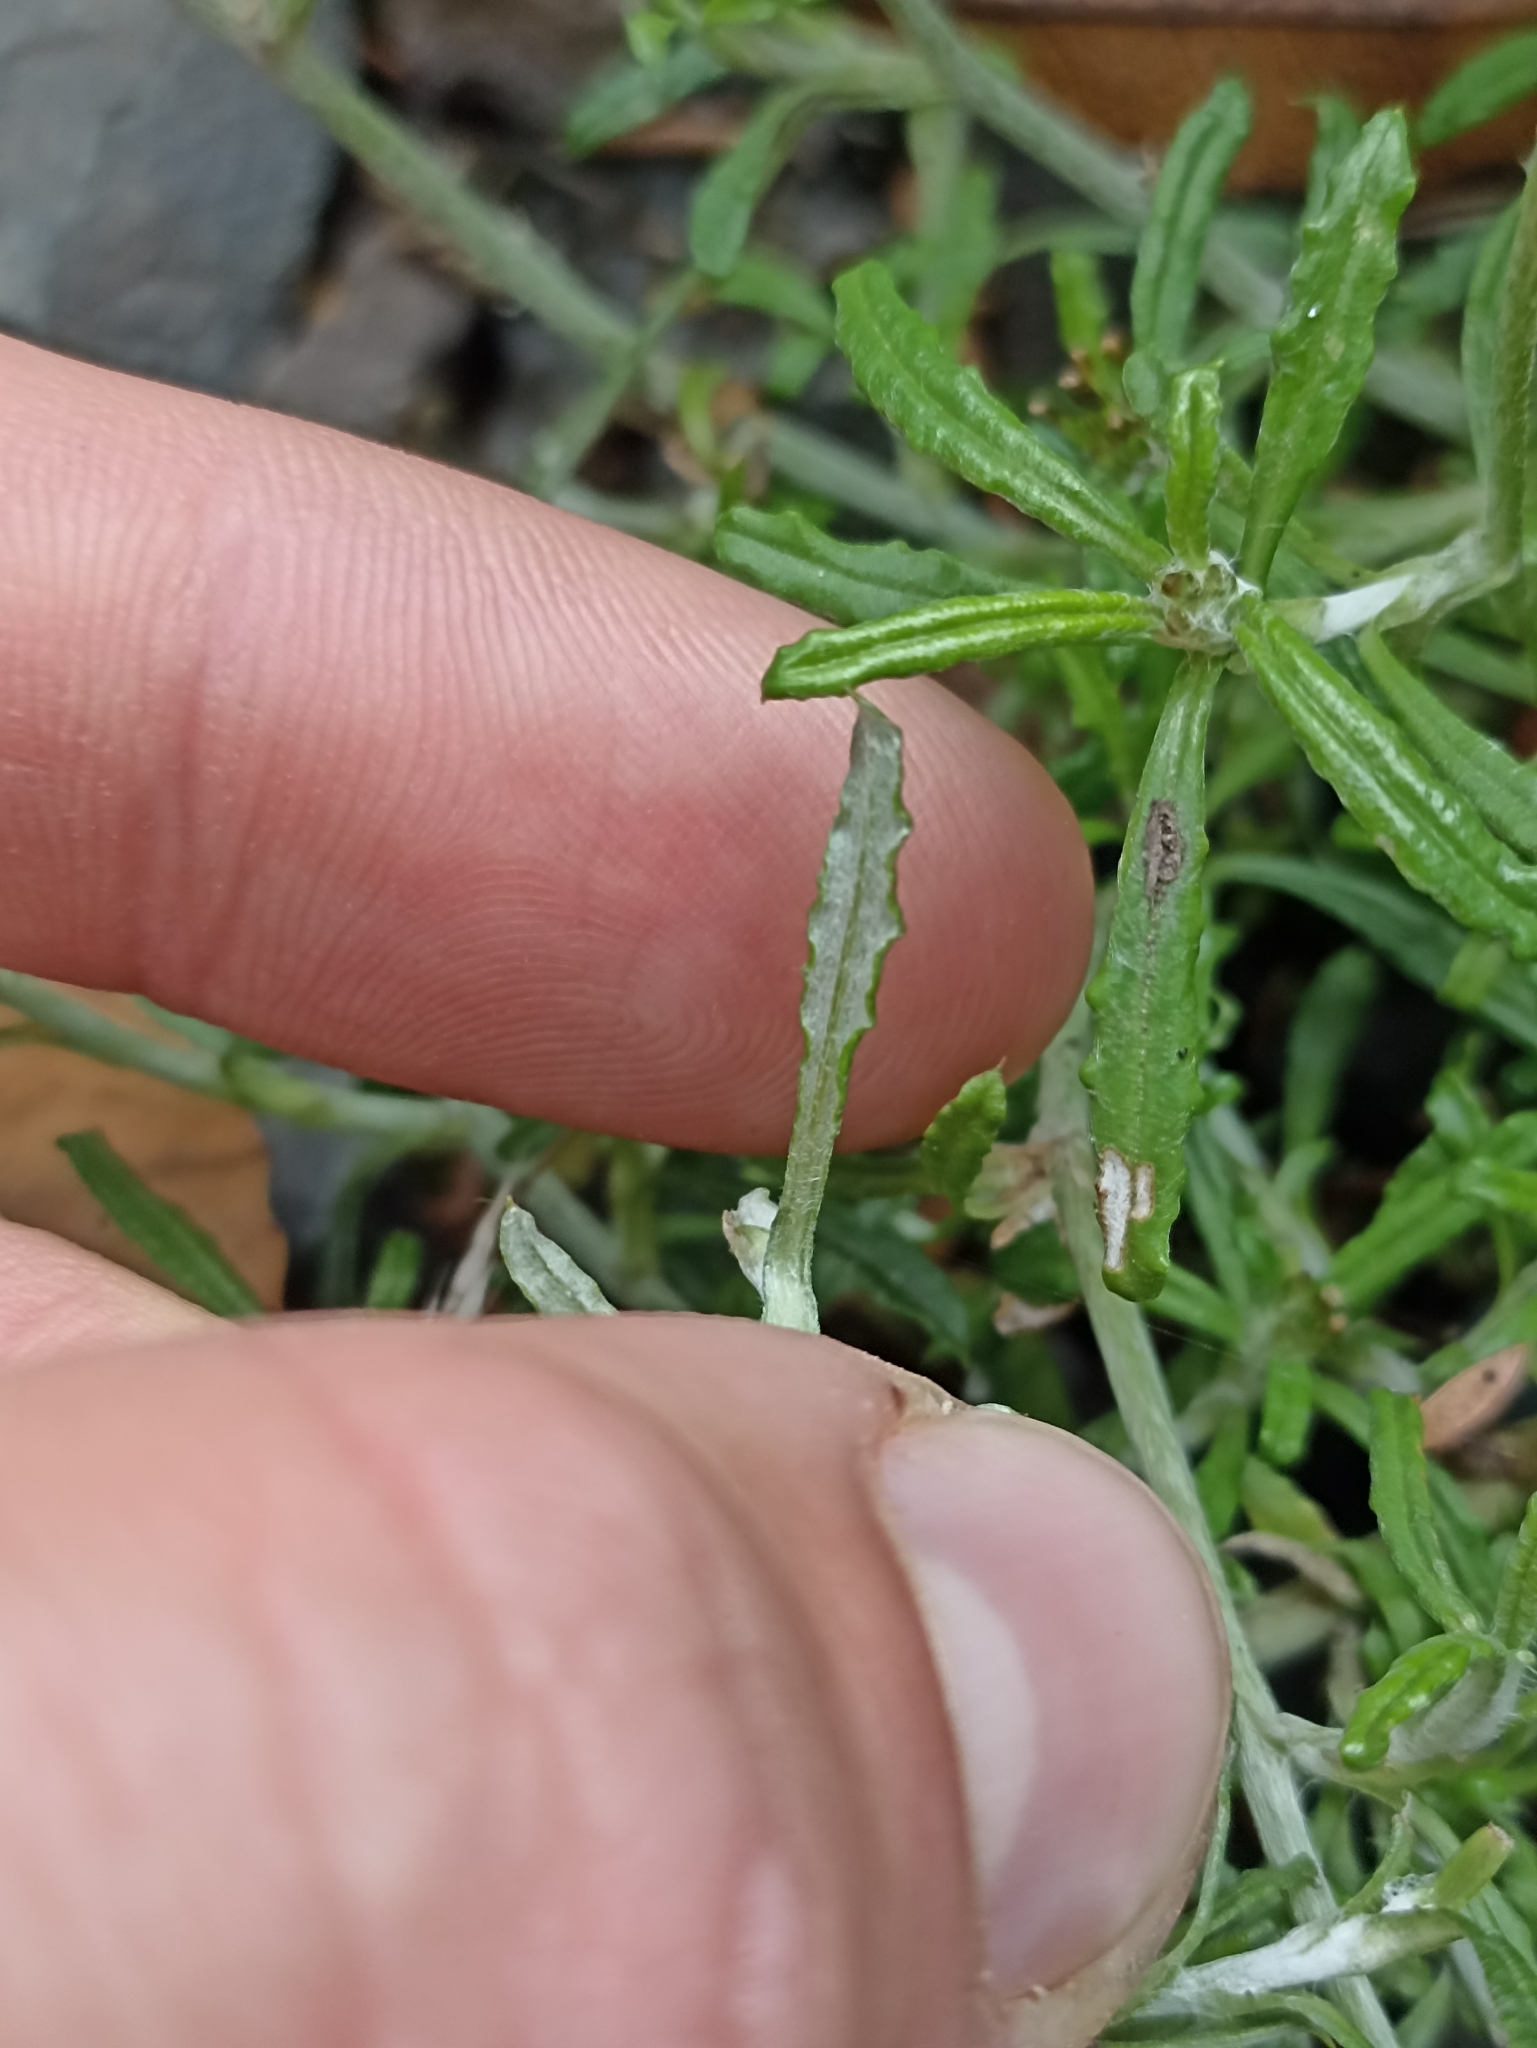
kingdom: Plantae
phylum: Tracheophyta
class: Magnoliopsida
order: Asterales
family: Asteraceae
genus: Euchiton
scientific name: Euchiton sphaericus
